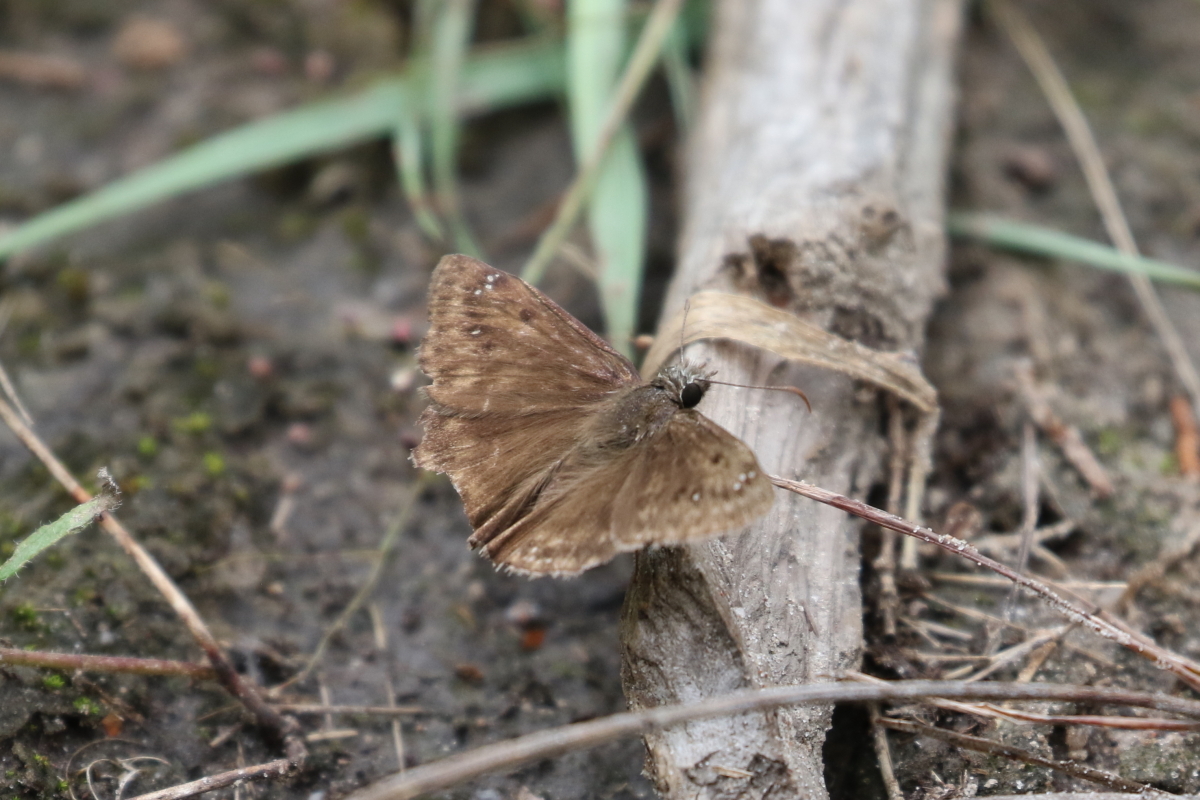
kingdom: Animalia
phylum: Arthropoda
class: Insecta
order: Lepidoptera
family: Hesperiidae
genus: Erynnis
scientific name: Erynnis horatius
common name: Horace's duskywing
